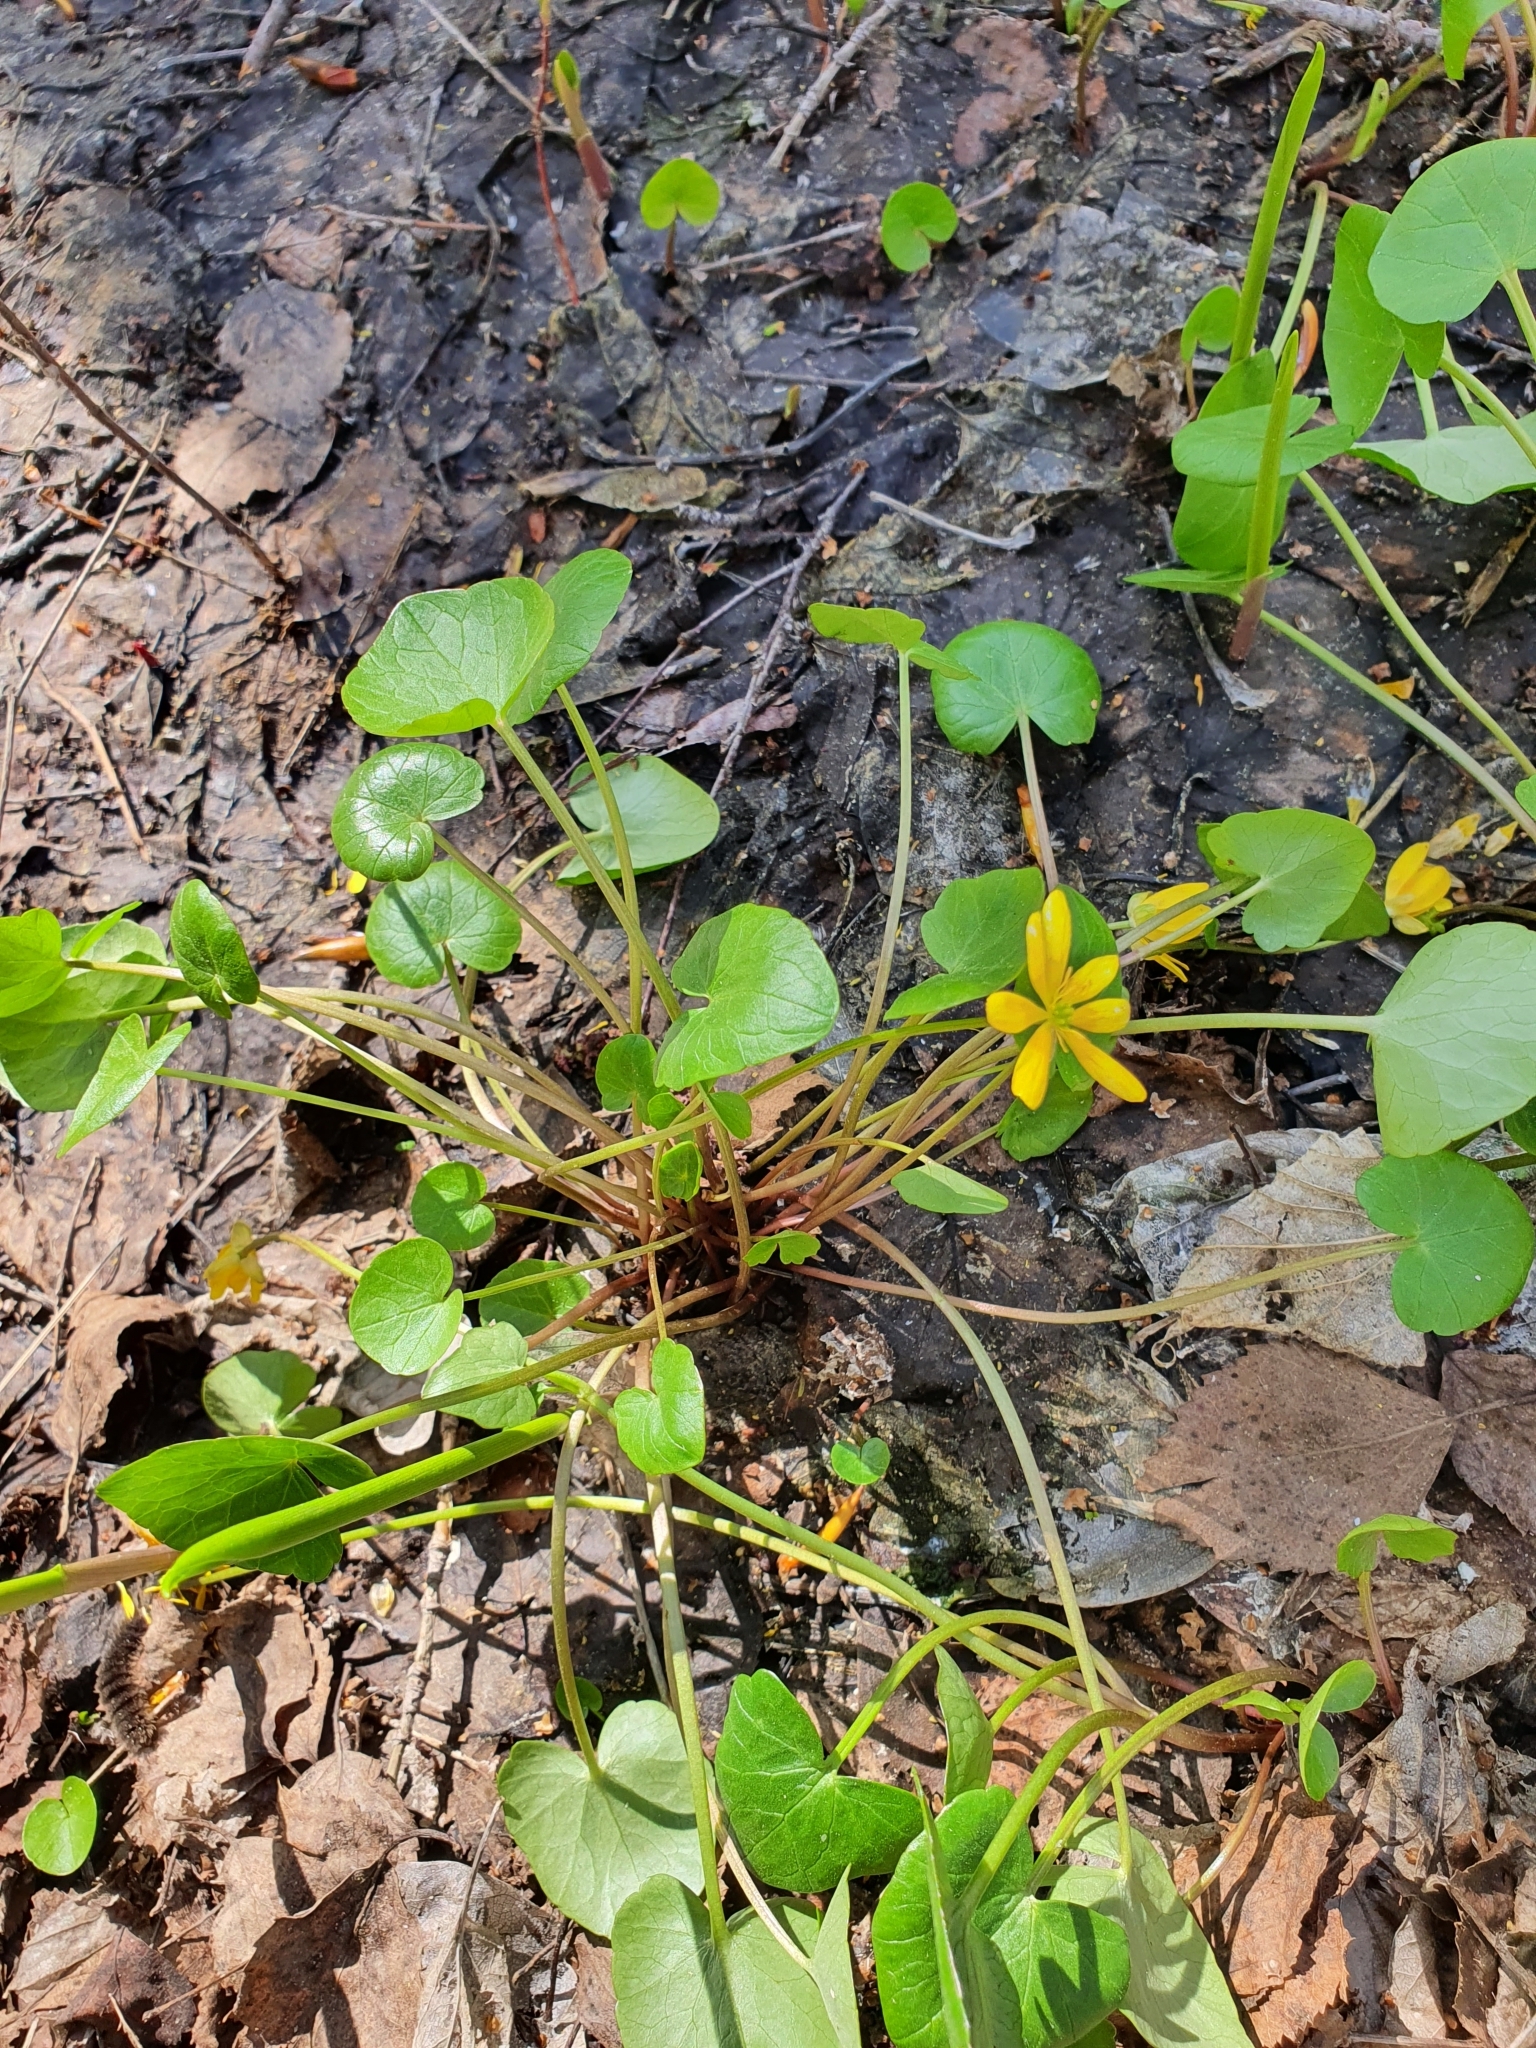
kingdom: Plantae
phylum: Tracheophyta
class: Magnoliopsida
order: Ranunculales
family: Ranunculaceae
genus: Ficaria
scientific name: Ficaria verna
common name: Lesser celandine
